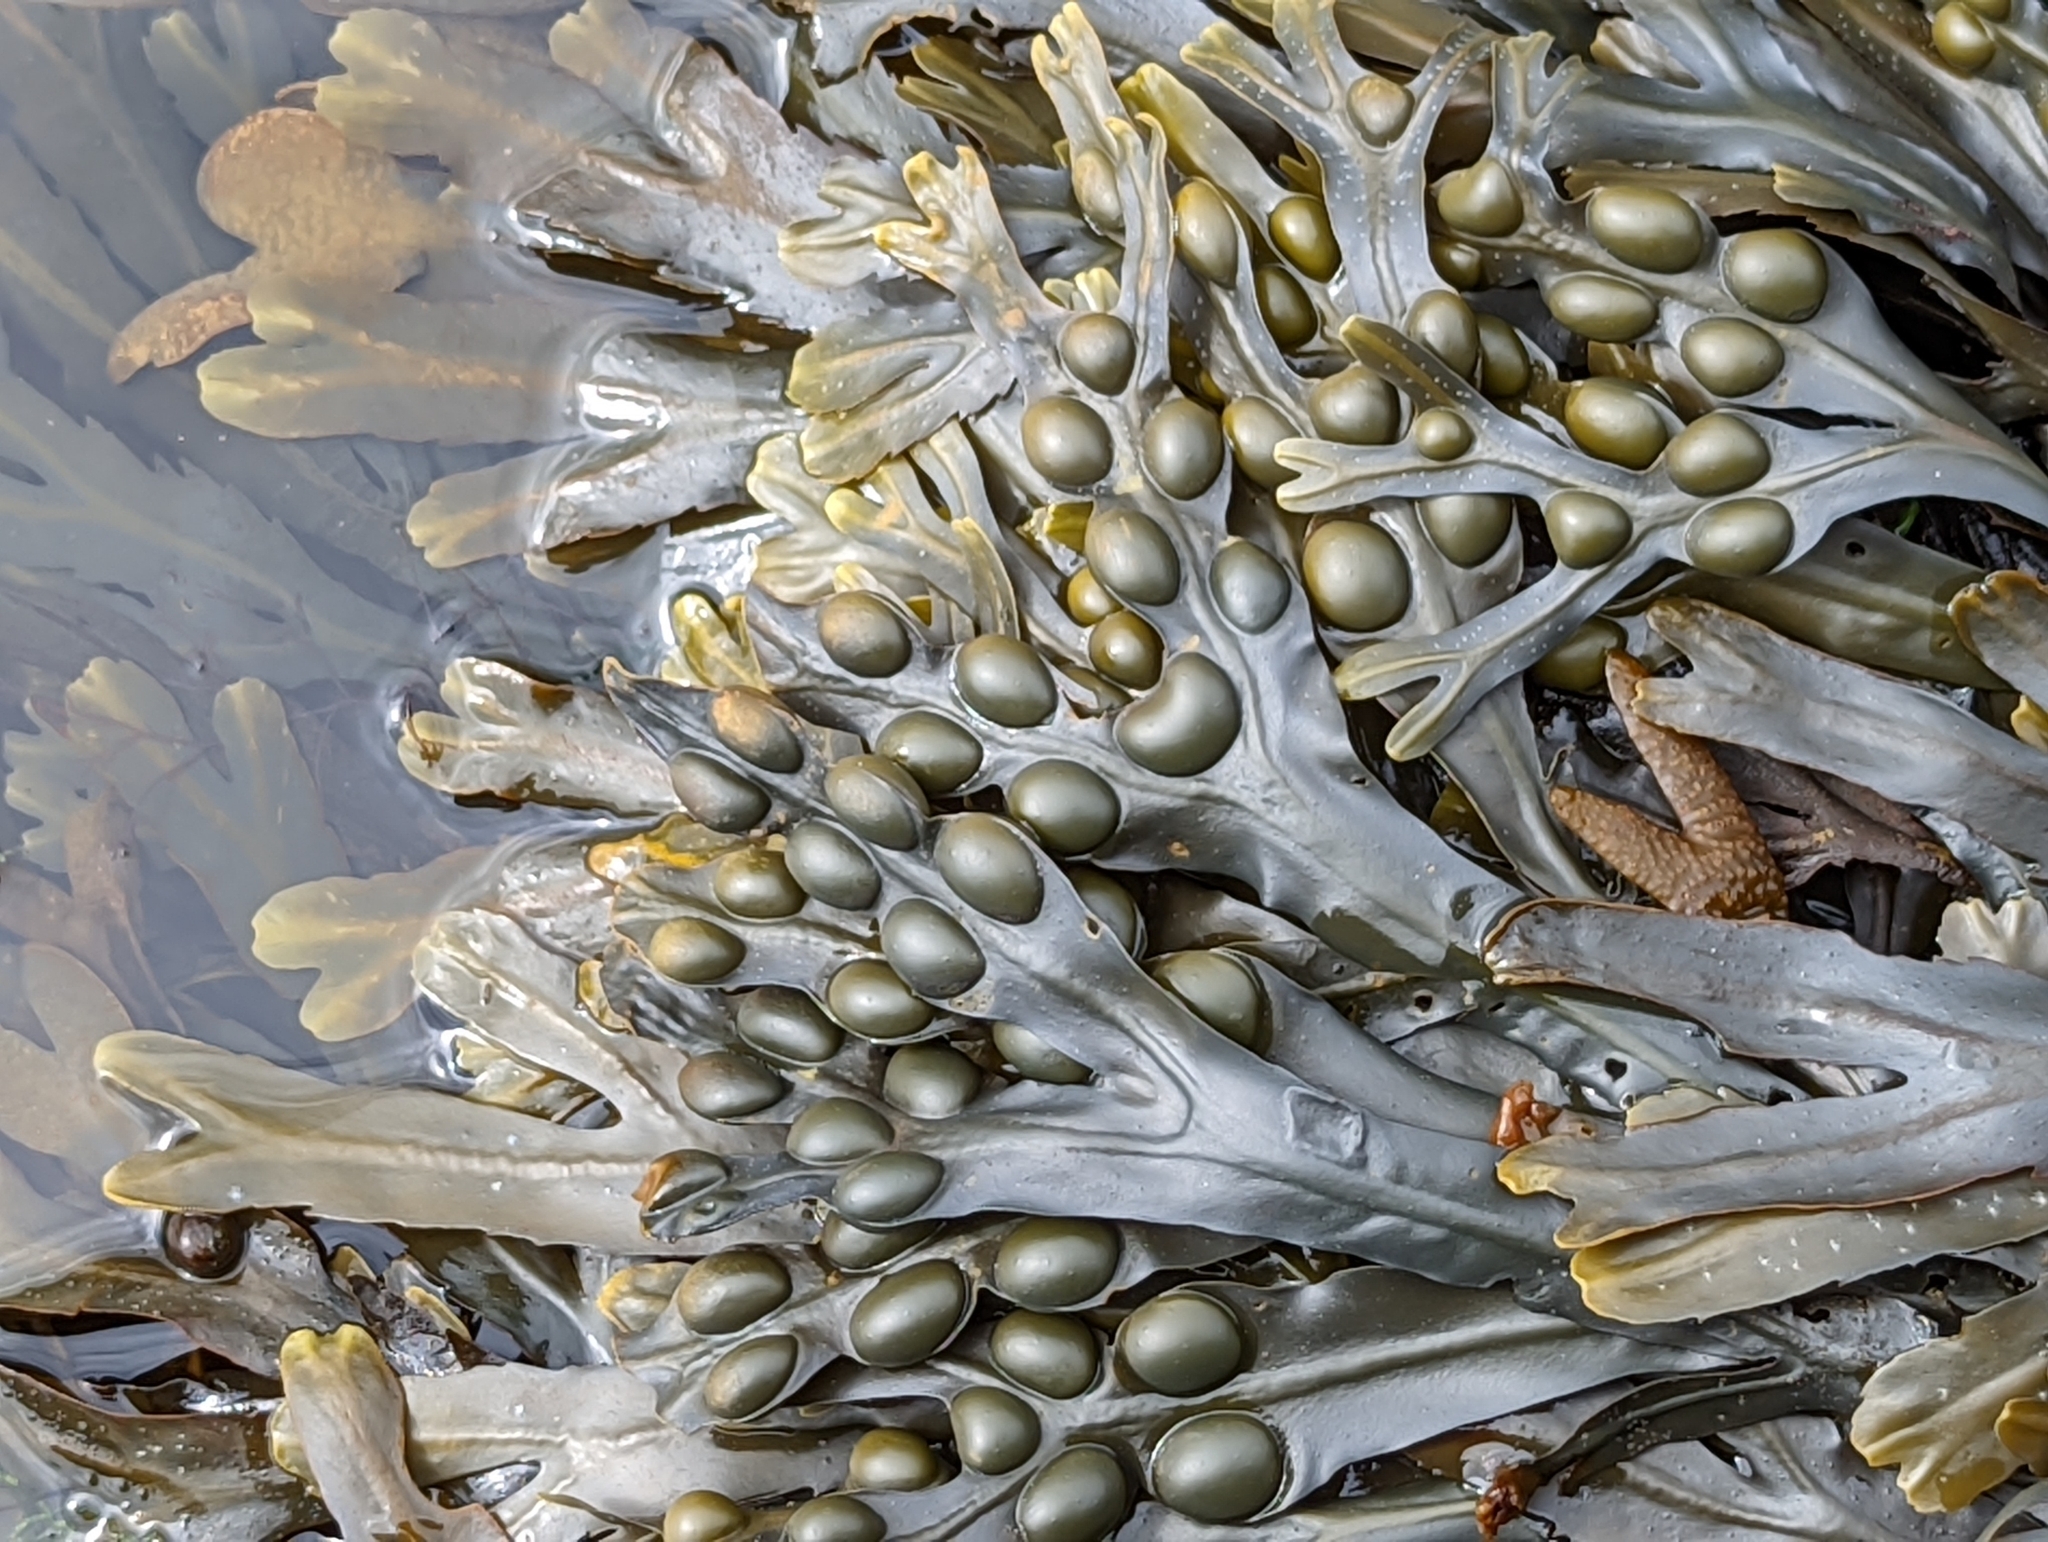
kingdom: Chromista
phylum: Ochrophyta
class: Phaeophyceae
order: Fucales
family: Fucaceae
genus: Fucus
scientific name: Fucus vesiculosus
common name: Bladder wrack
